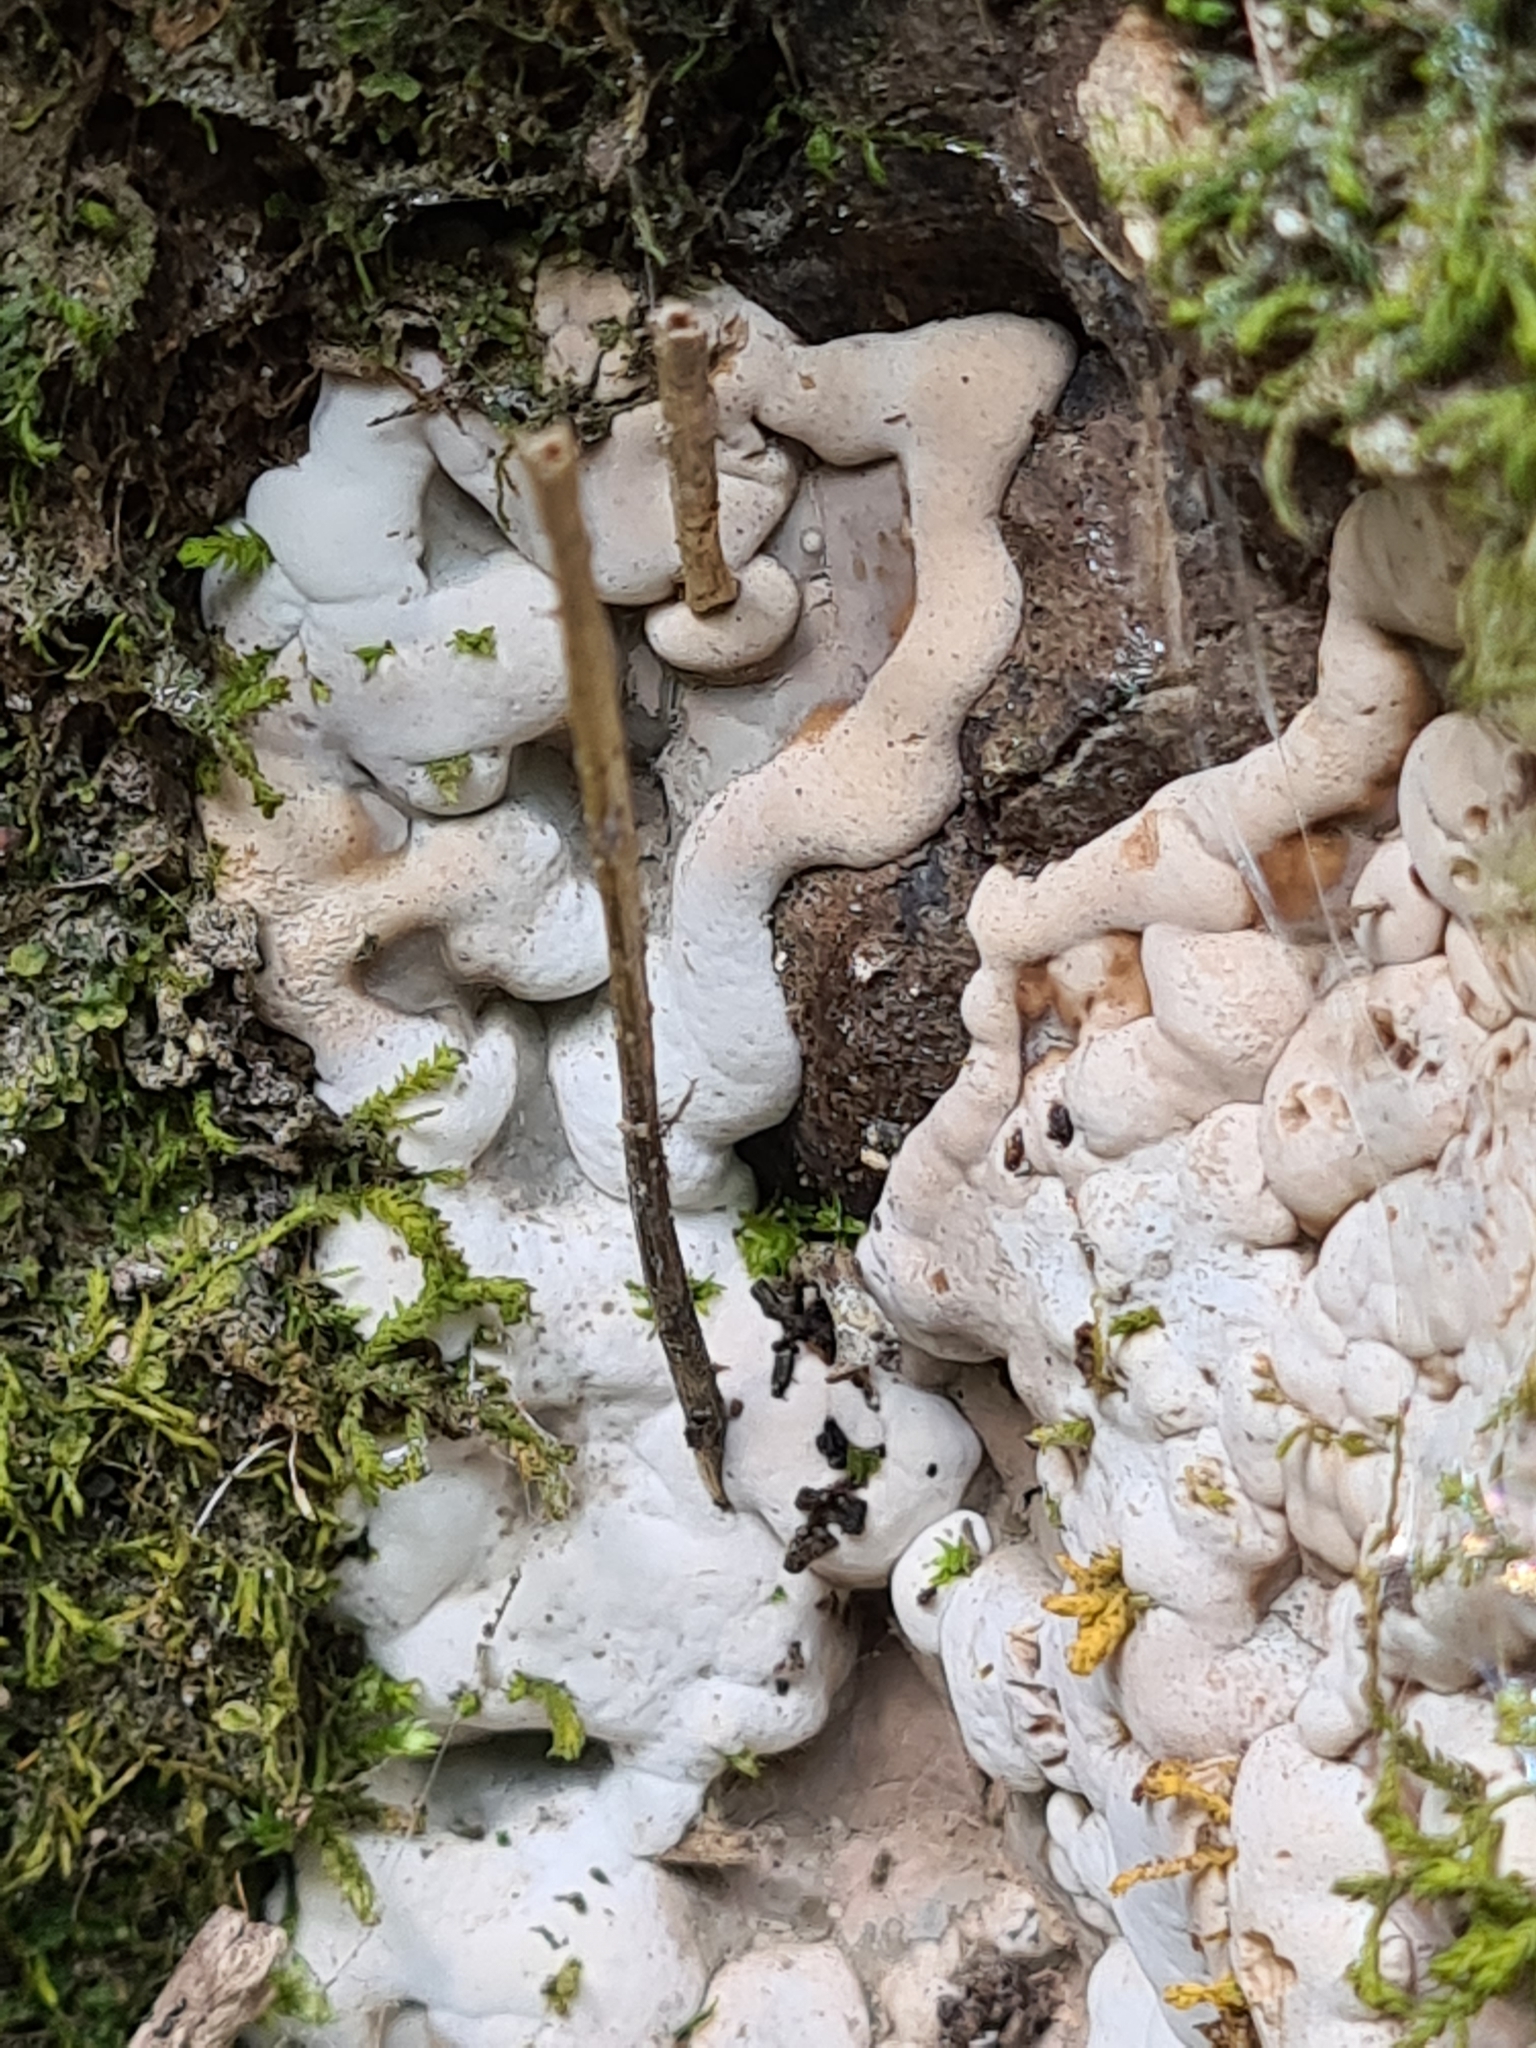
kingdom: Fungi
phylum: Ascomycota
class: Sordariomycetes
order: Xylariales
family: Xylariaceae
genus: Kretzschmaria
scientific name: Kretzschmaria deusta
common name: Brittle cinder
